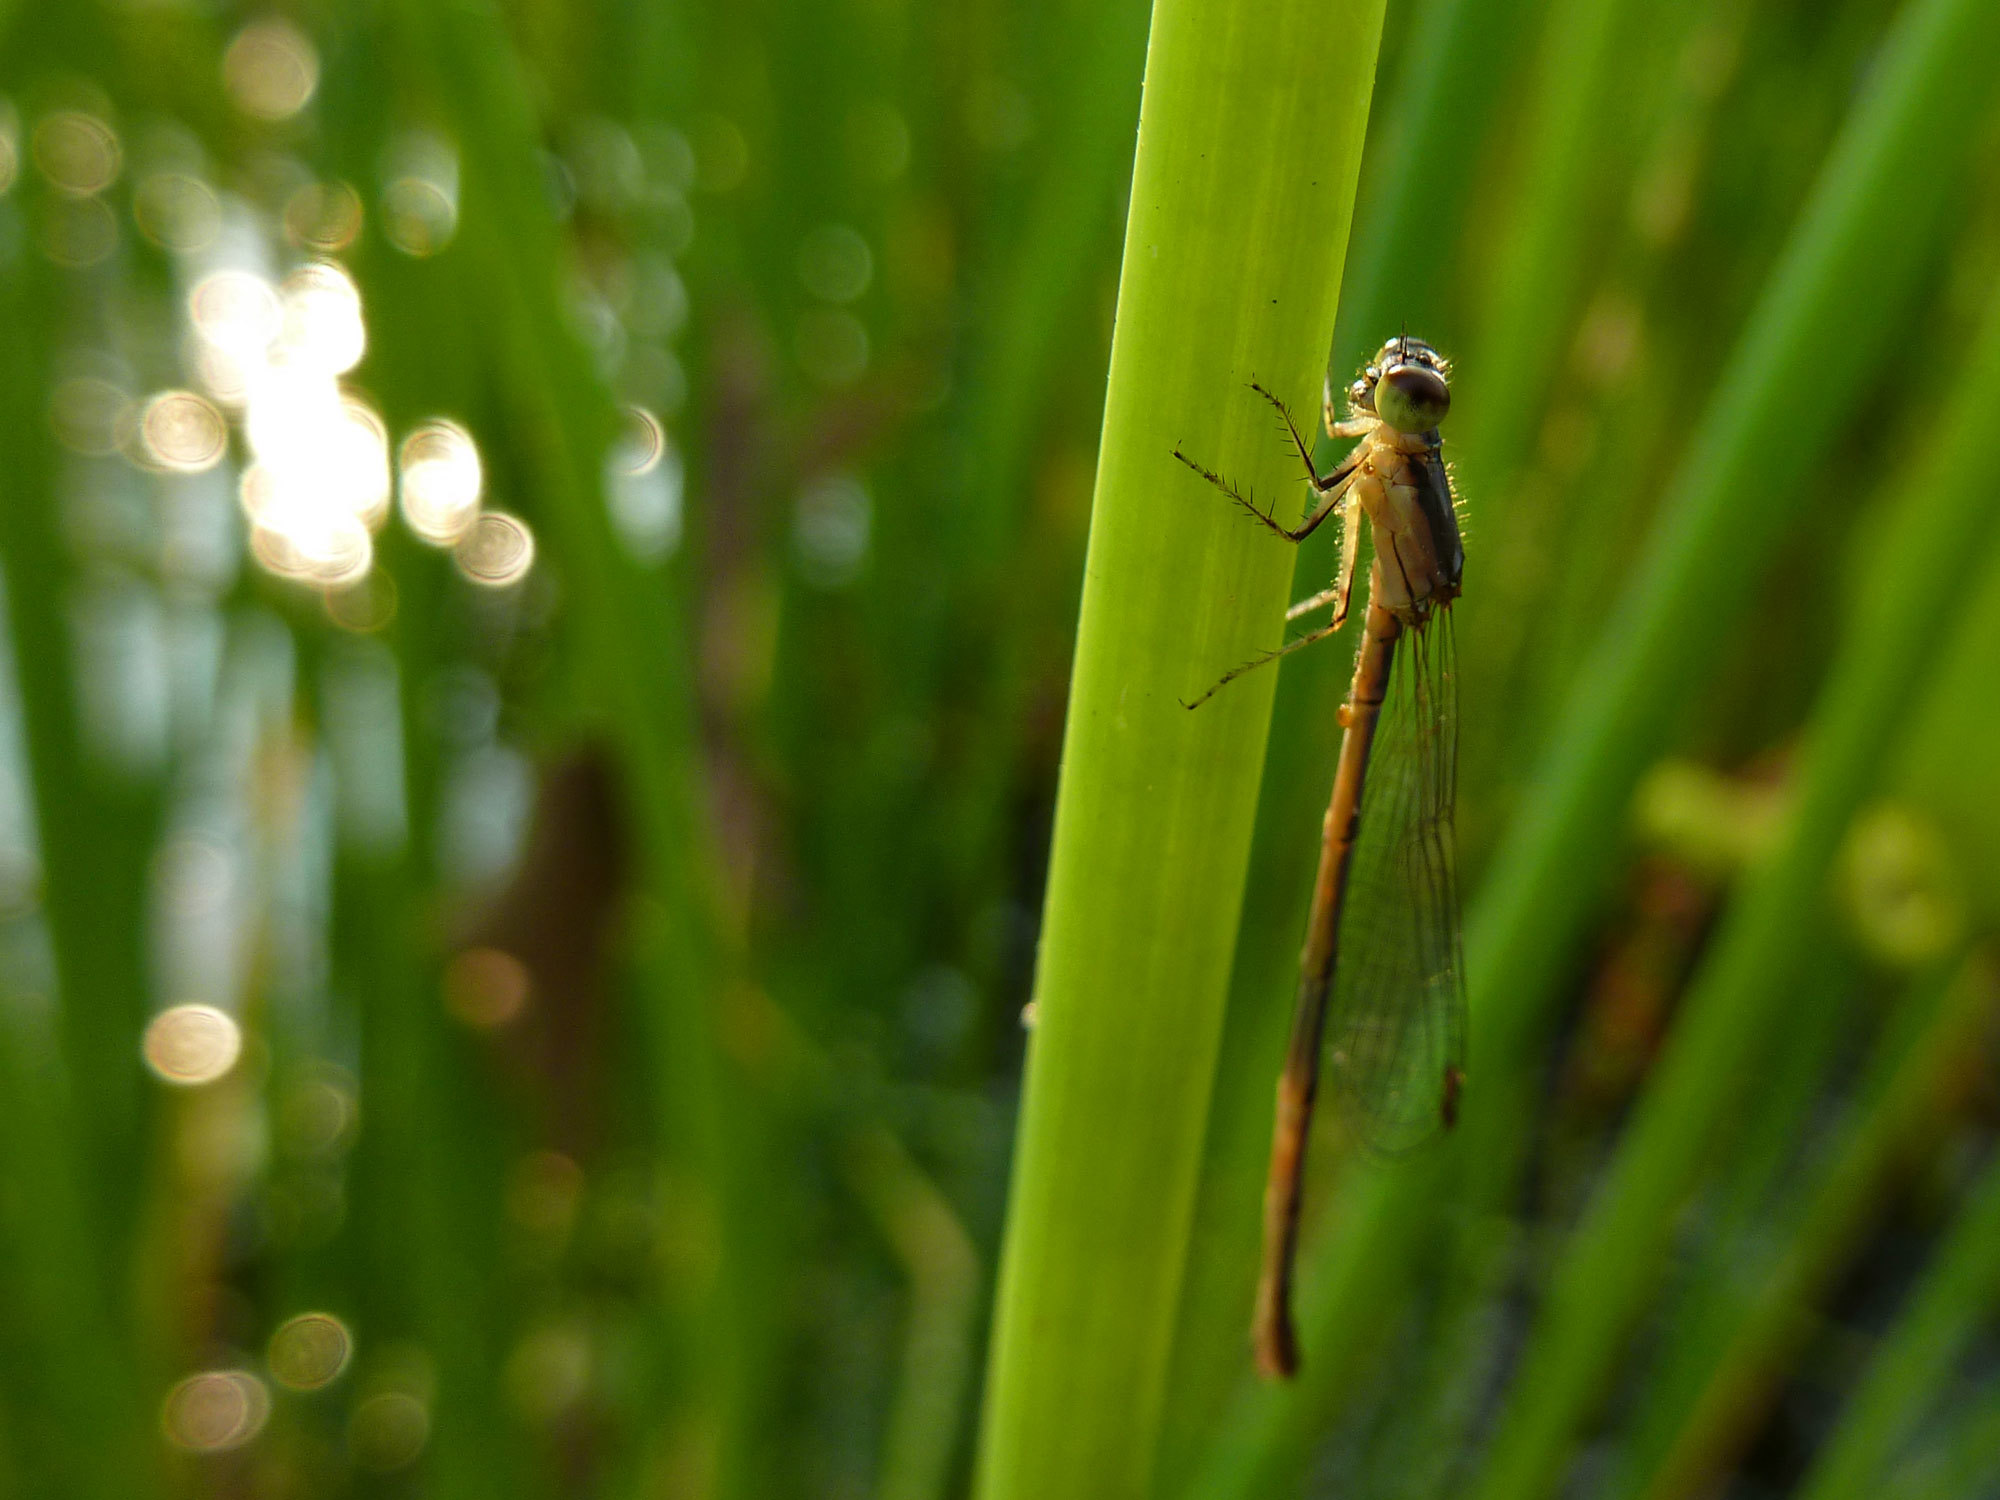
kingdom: Animalia
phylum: Arthropoda
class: Insecta
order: Odonata
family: Coenagrionidae
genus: Ischnura
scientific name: Ischnura posita
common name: Fragile forktail
